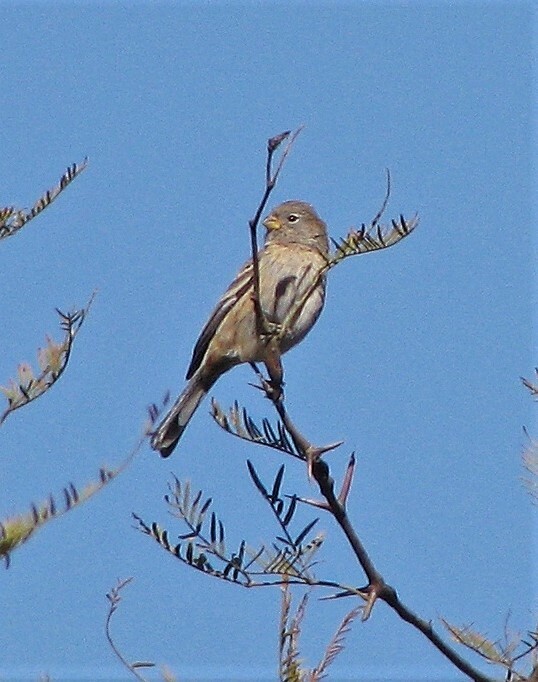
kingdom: Animalia
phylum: Chordata
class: Aves
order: Passeriformes
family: Thraupidae
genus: Catamenia
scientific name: Catamenia analis
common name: Band-tailed seedeater
